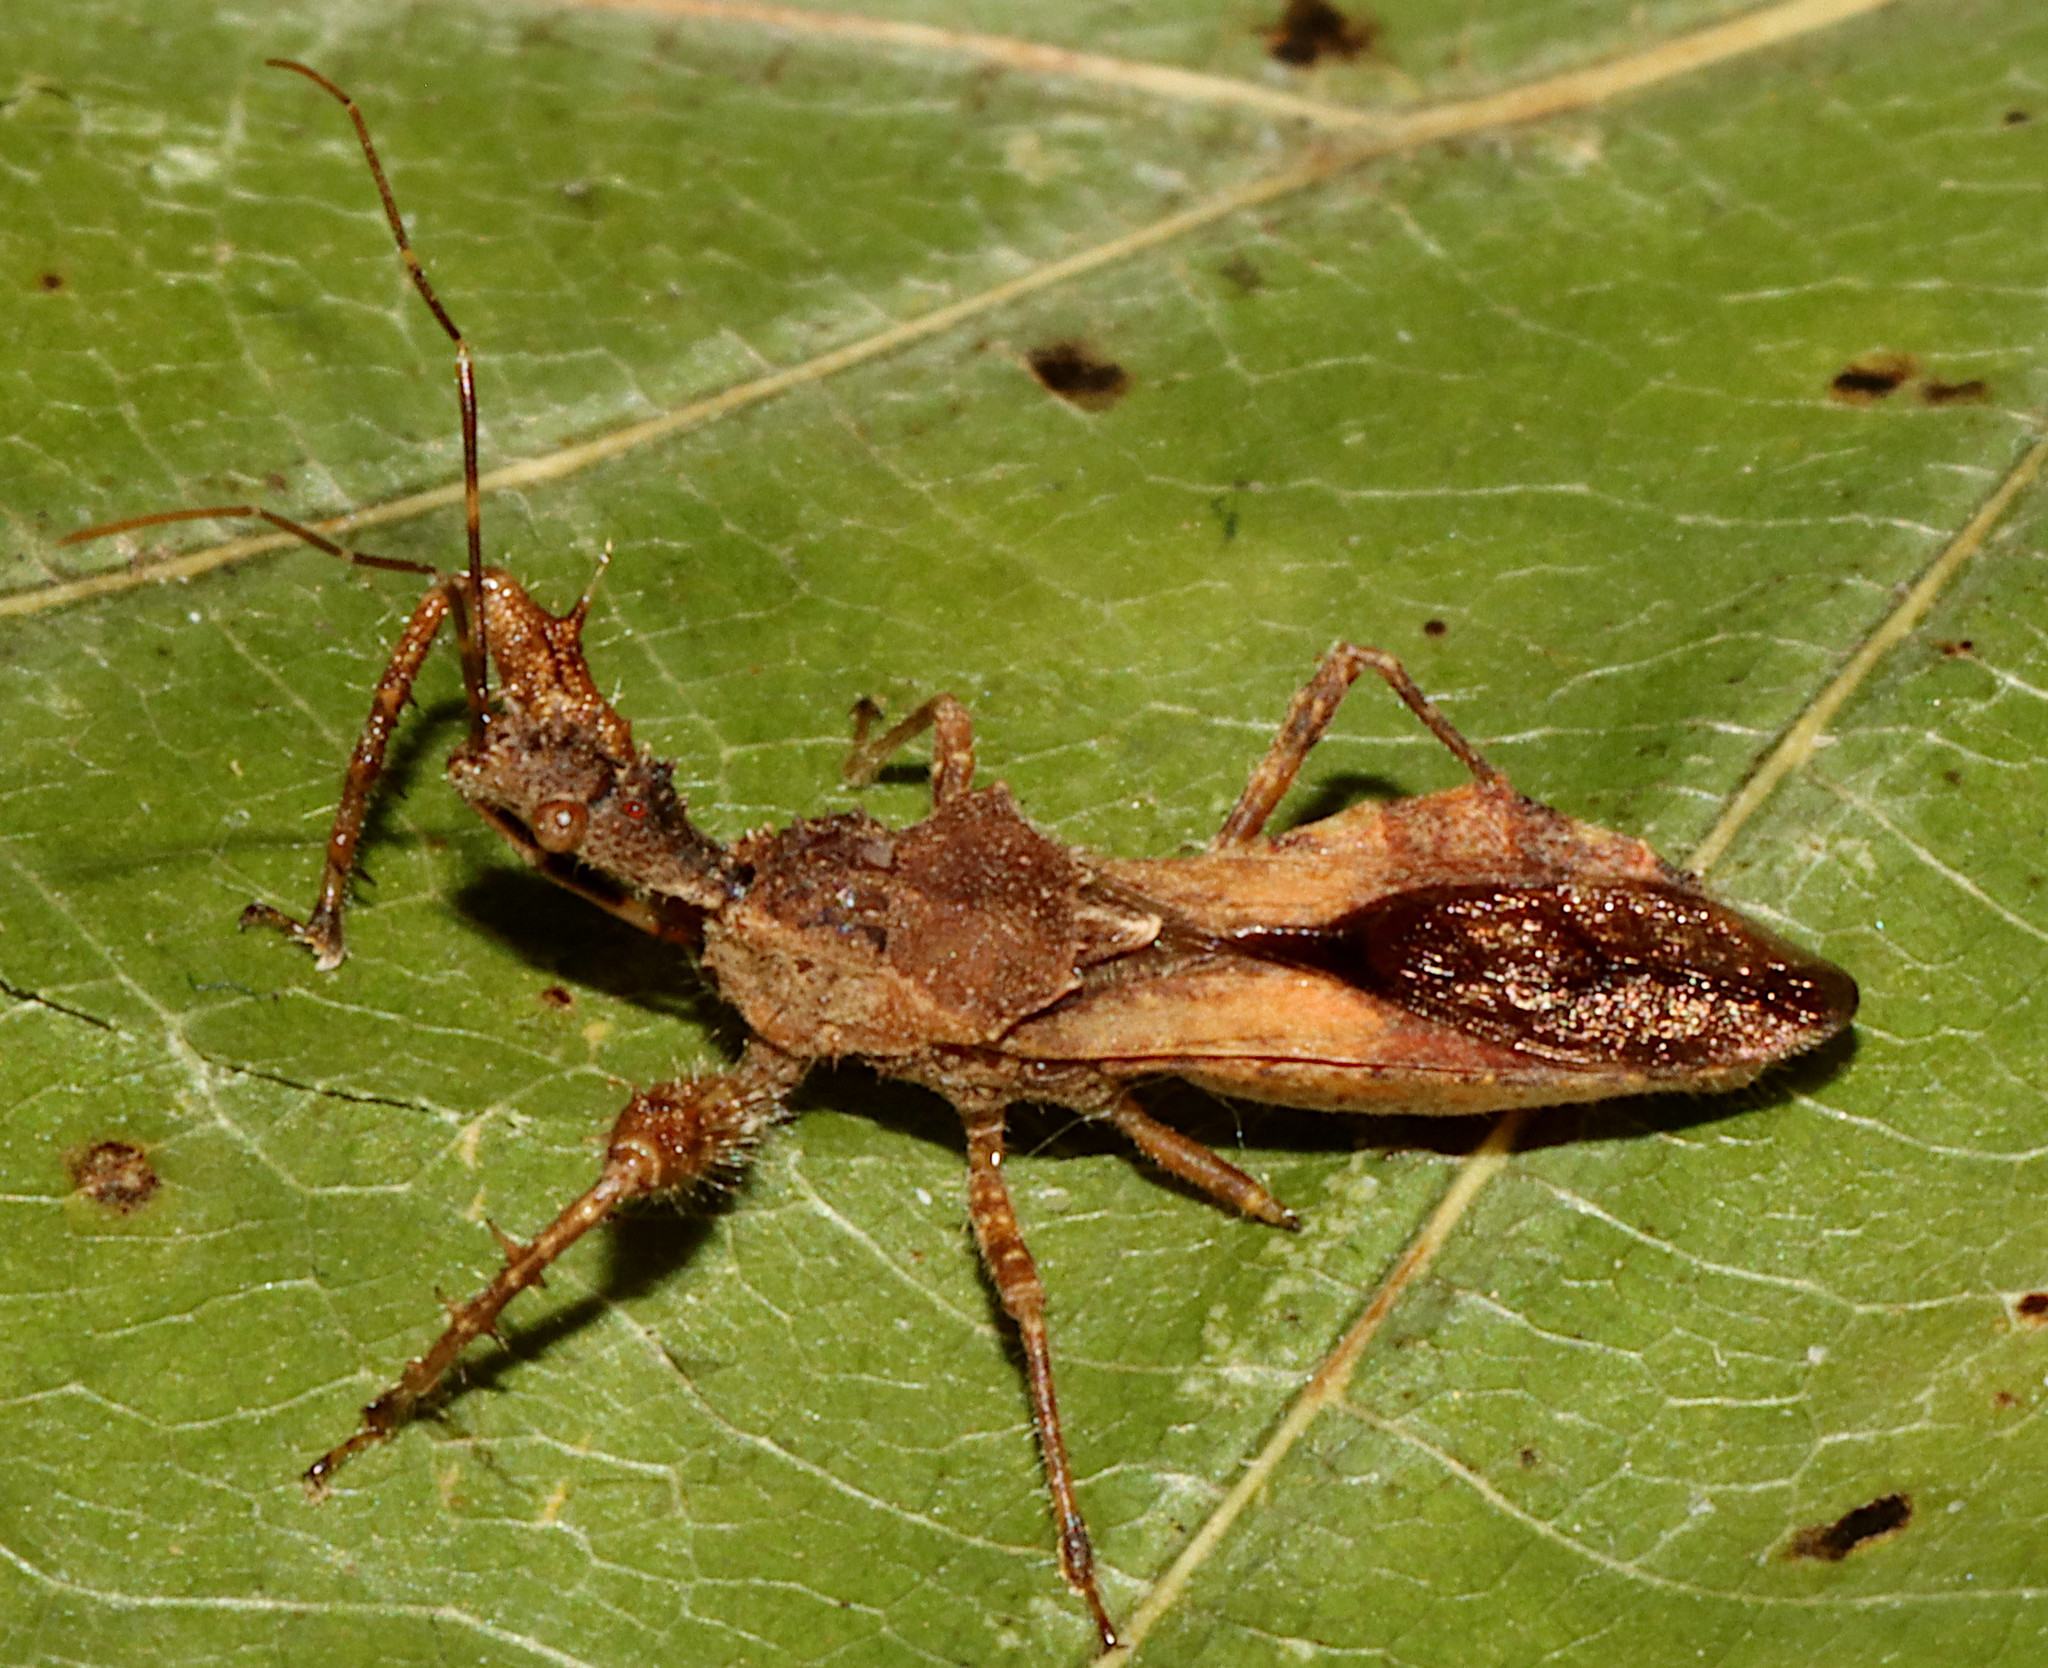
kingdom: Animalia
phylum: Arthropoda
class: Insecta
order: Hemiptera
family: Reduviidae
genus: Sinea
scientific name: Sinea spinipes
